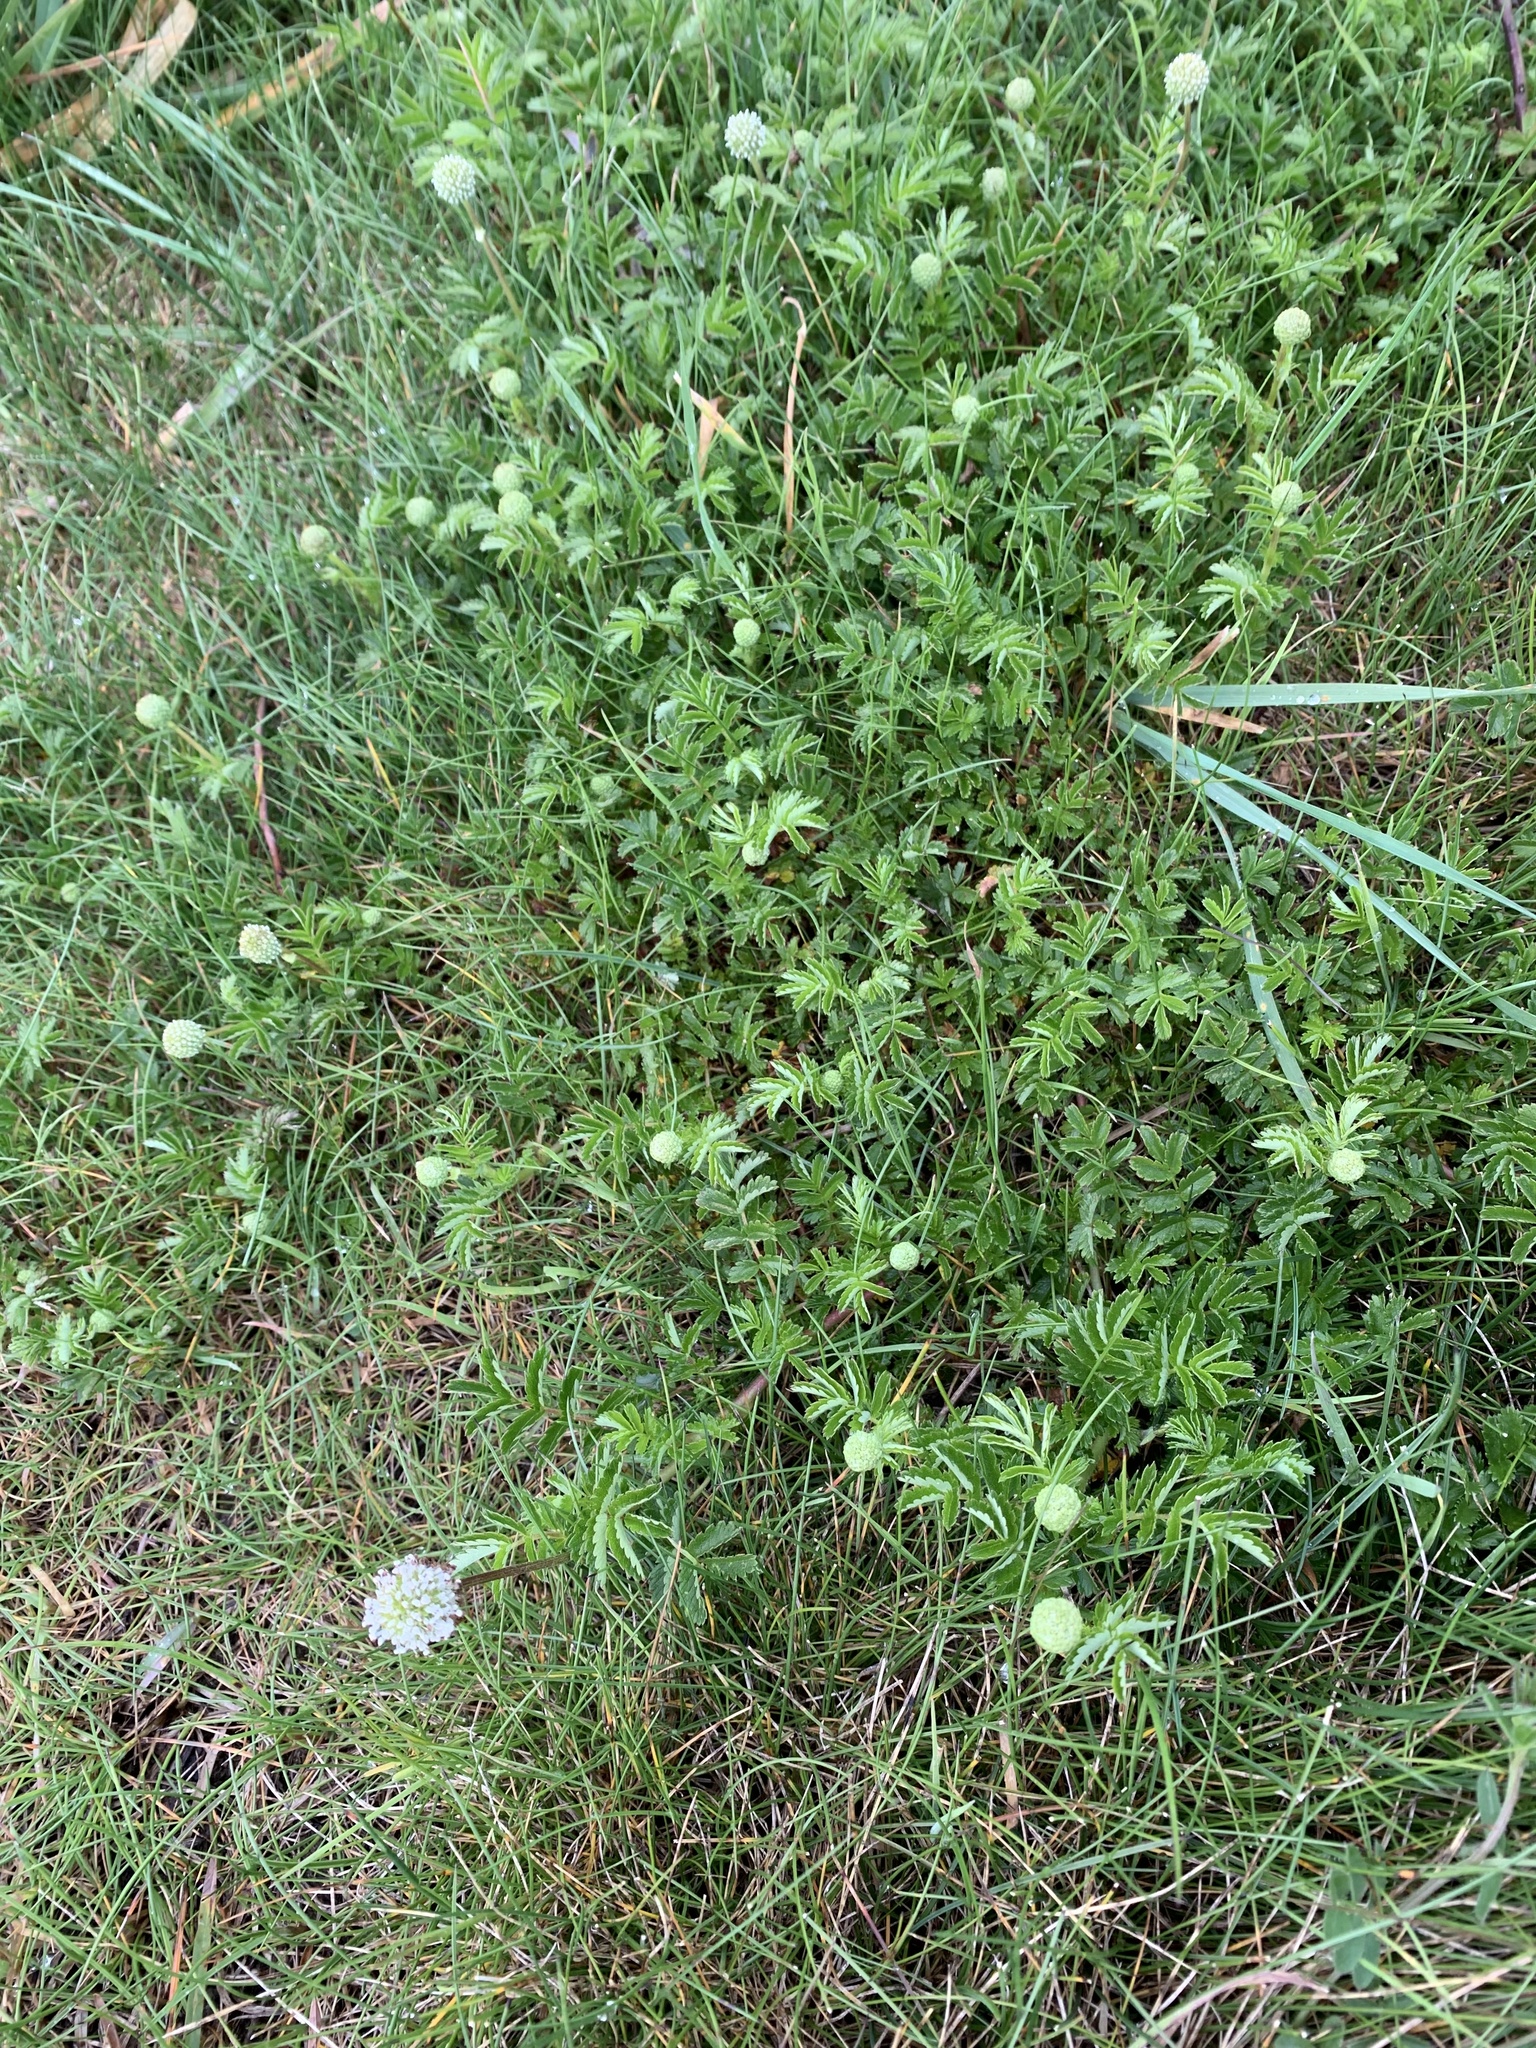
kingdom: Plantae
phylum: Tracheophyta
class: Magnoliopsida
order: Rosales
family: Rosaceae
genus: Acaena
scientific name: Acaena novae-zelandiae
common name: Pirri-pirri-bur
